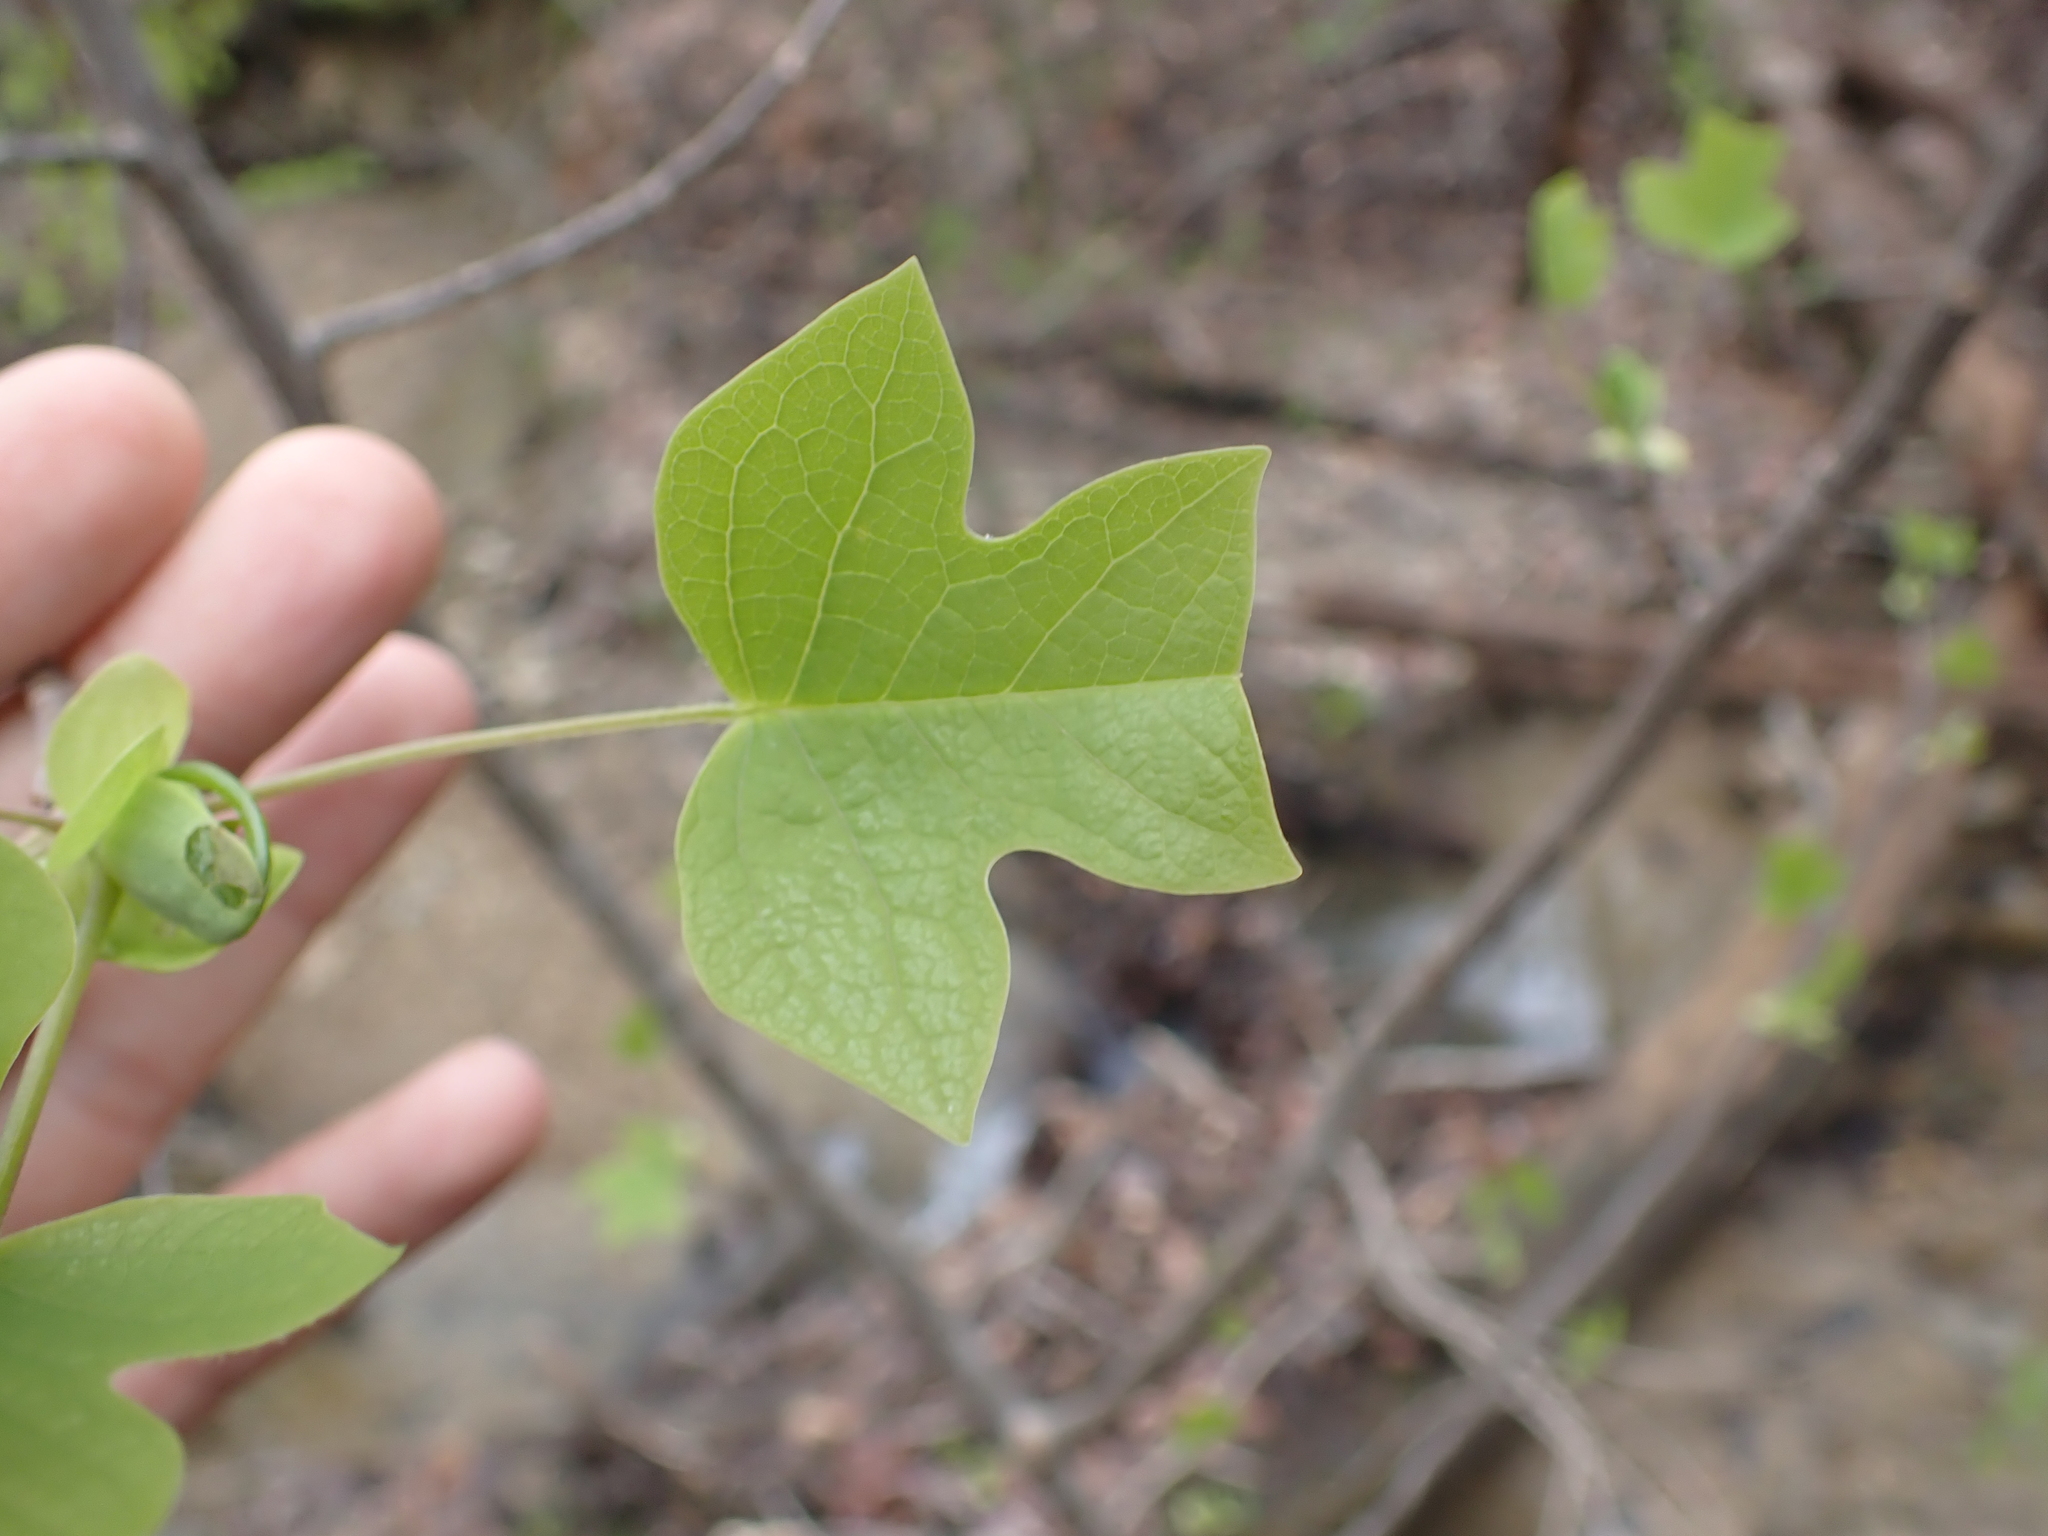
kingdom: Plantae
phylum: Tracheophyta
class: Magnoliopsida
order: Magnoliales
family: Magnoliaceae
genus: Liriodendron
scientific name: Liriodendron tulipifera
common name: Tulip tree
